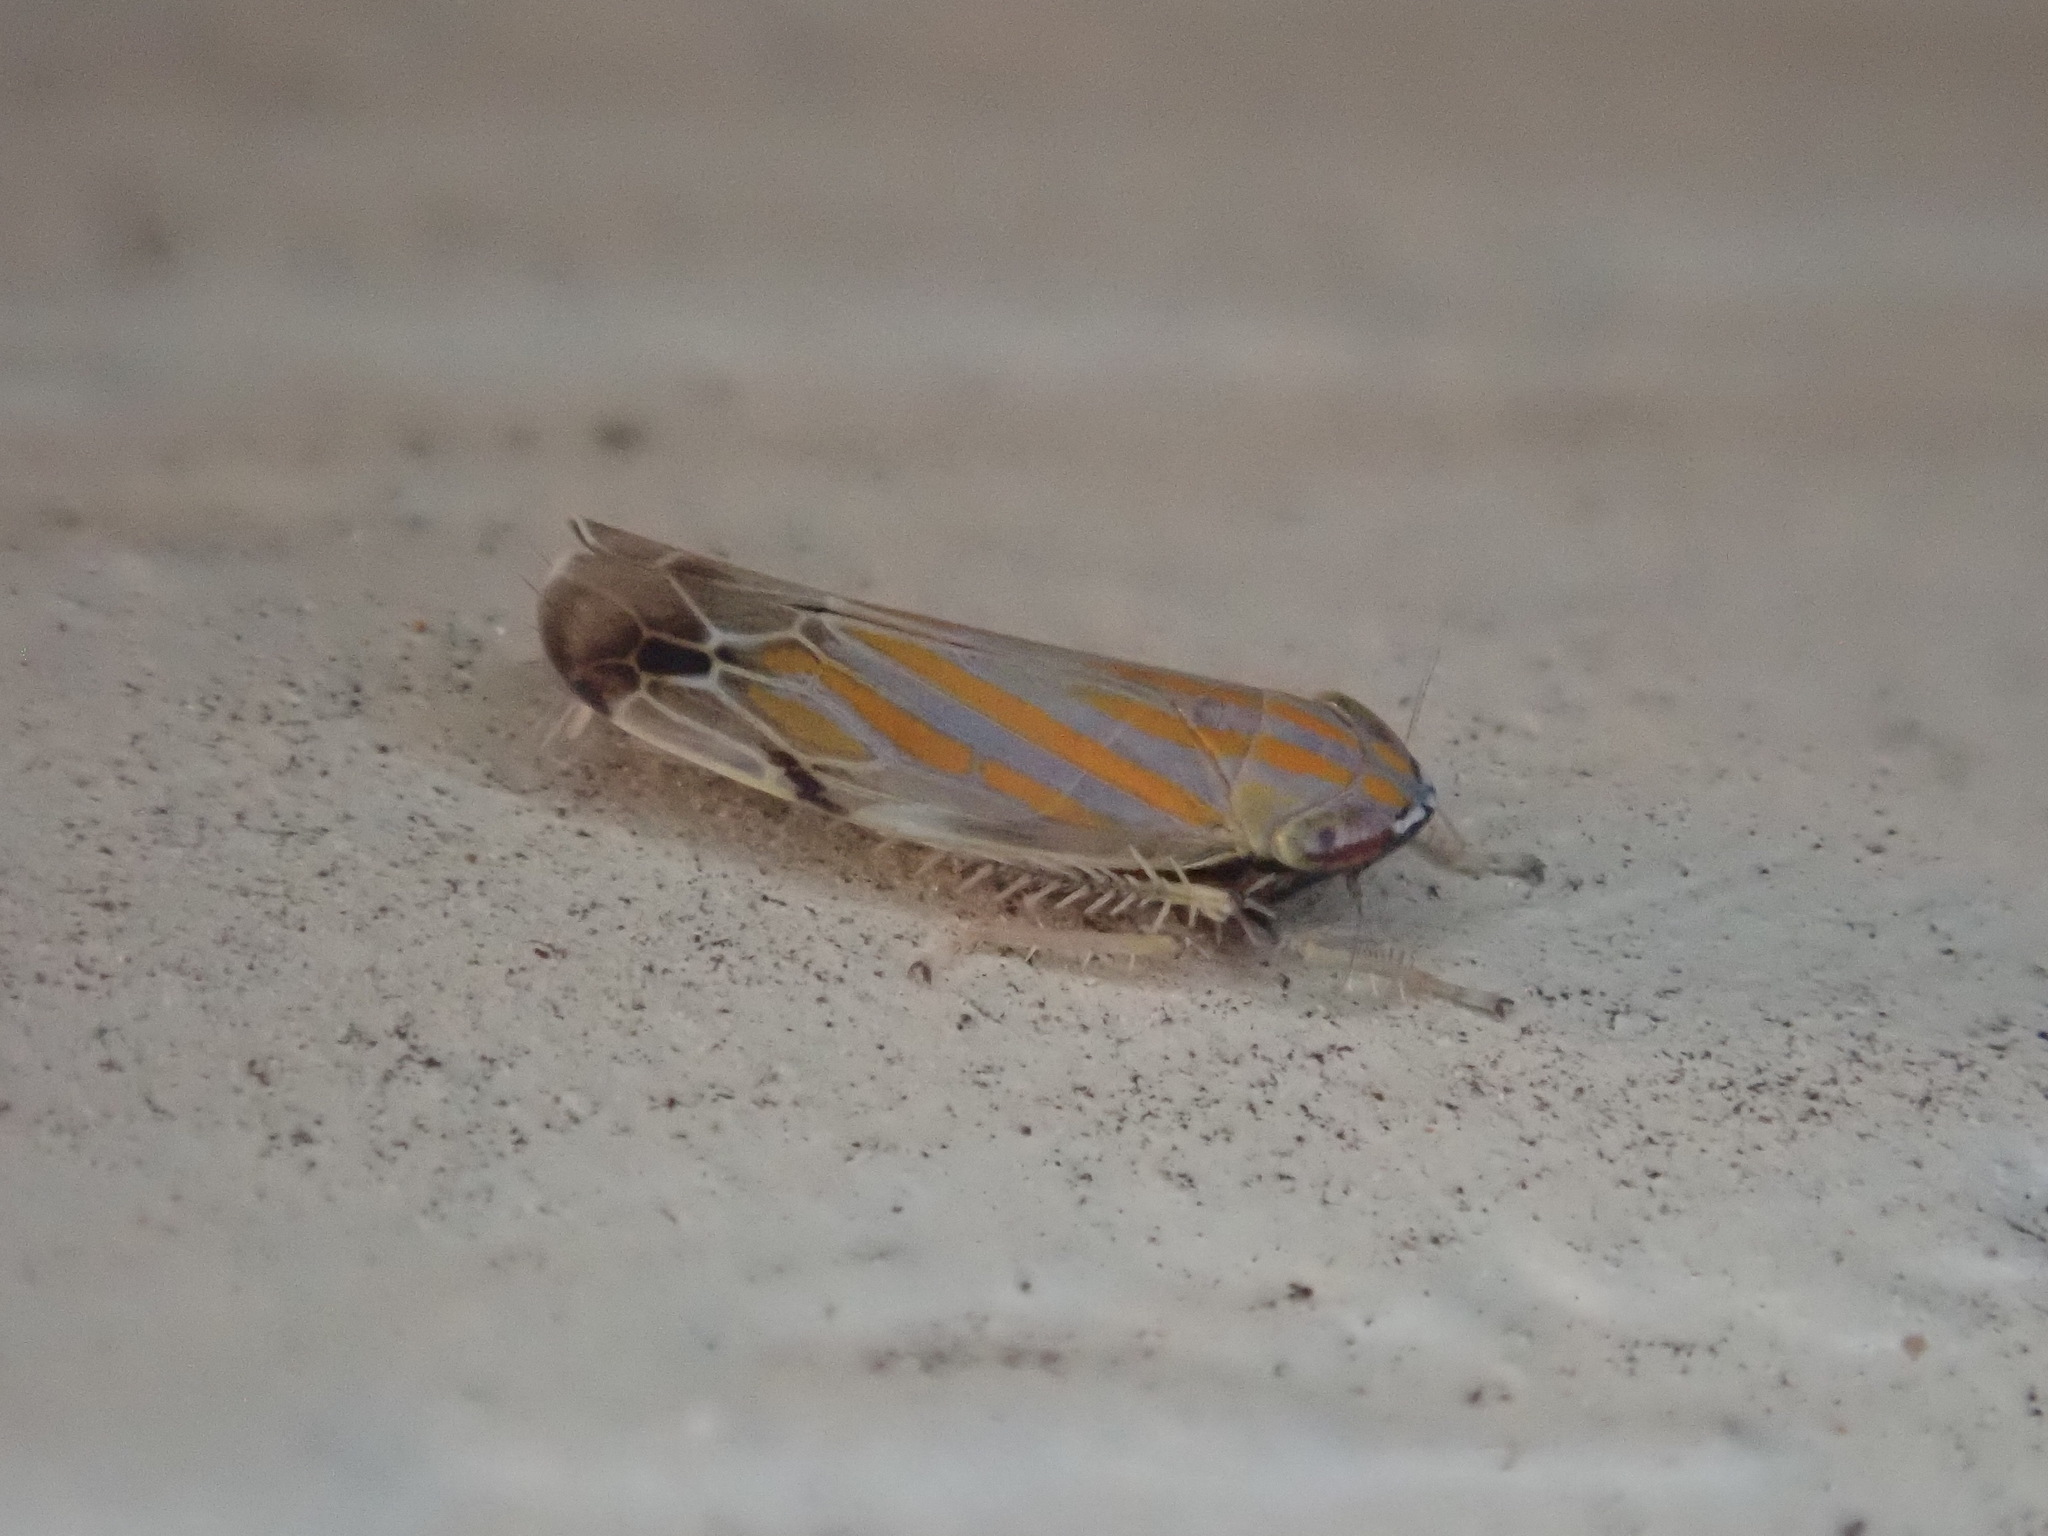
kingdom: Animalia
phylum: Arthropoda
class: Insecta
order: Hemiptera
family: Cicadellidae
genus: Deltanus
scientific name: Deltanus texanus
